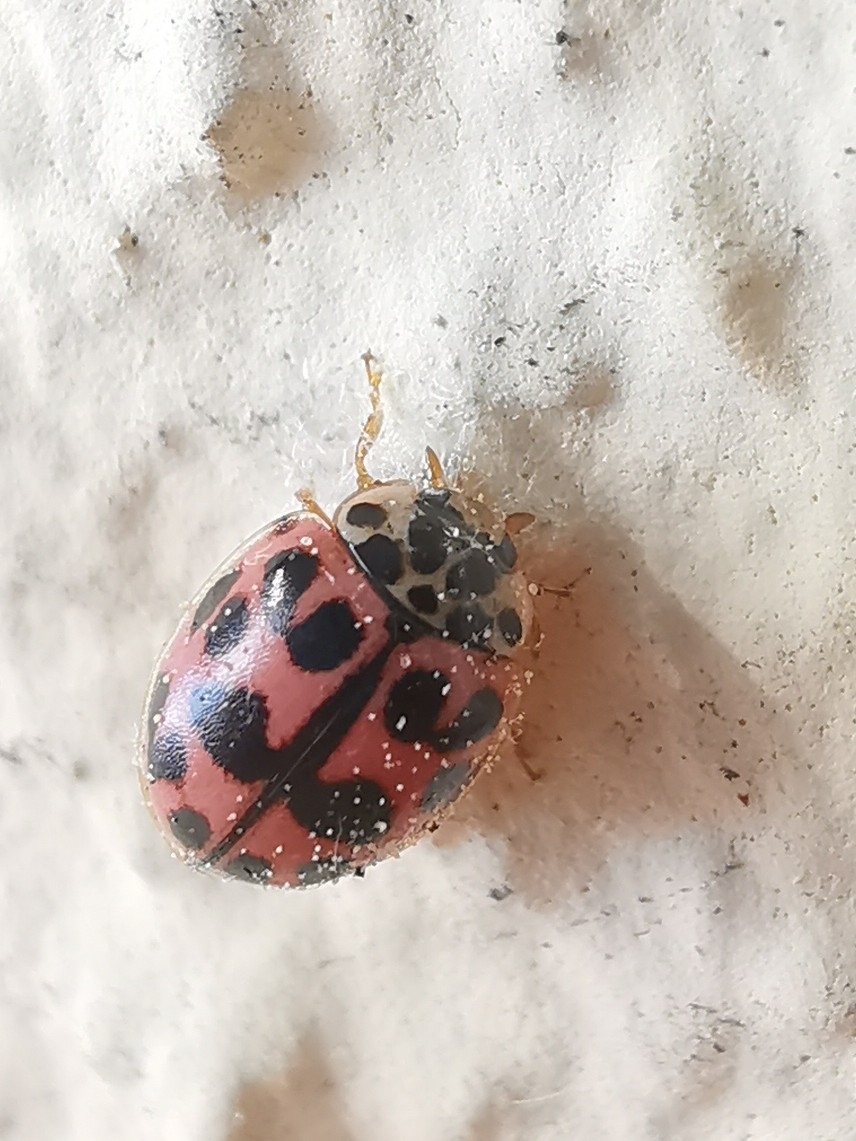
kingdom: Animalia
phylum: Arthropoda
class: Insecta
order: Coleoptera
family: Coccinellidae
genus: Oenopia
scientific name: Oenopia conglobata
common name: Ladybird beetle
